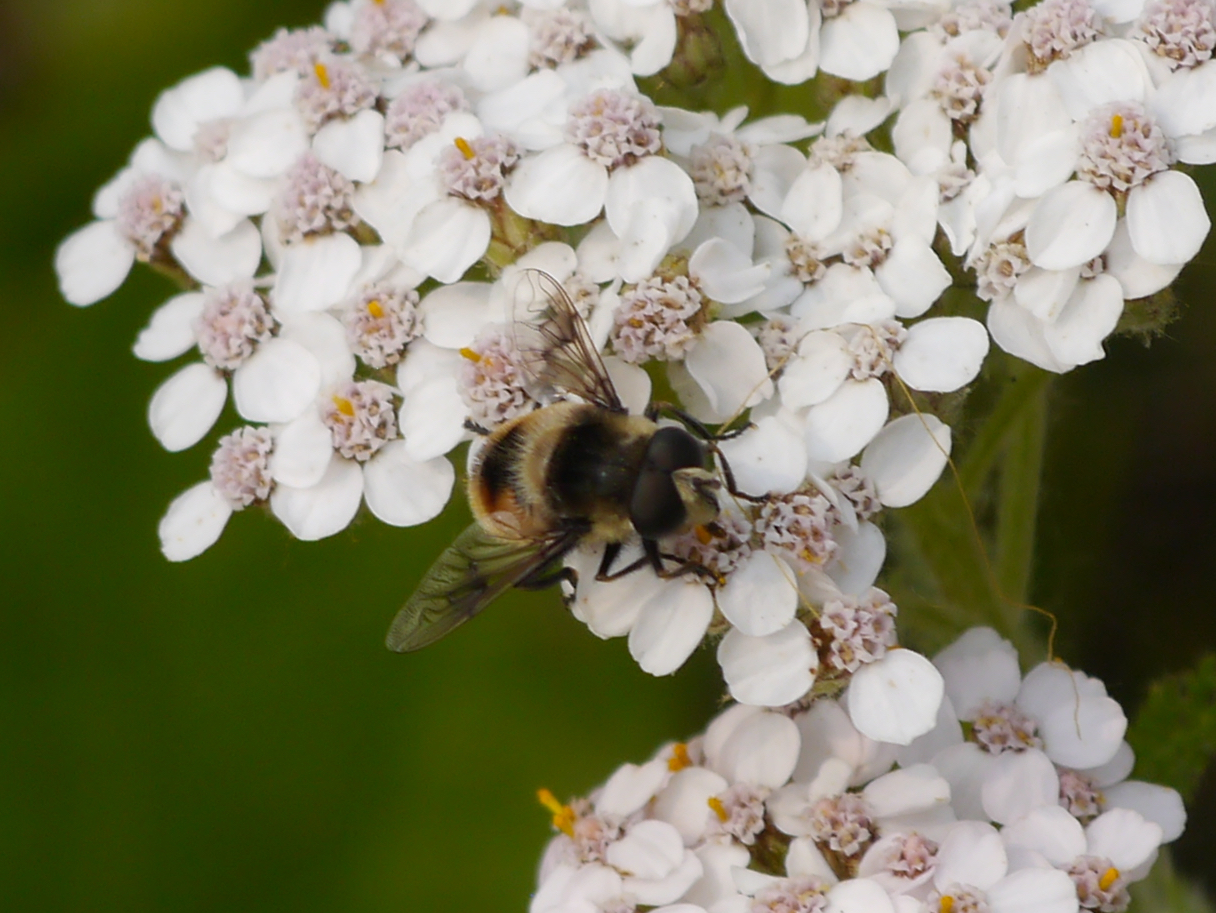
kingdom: Animalia
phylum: Arthropoda
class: Insecta
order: Diptera
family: Syrphidae
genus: Eristalis
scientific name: Eristalis anthophorina
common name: Orange-spotted drone fly
